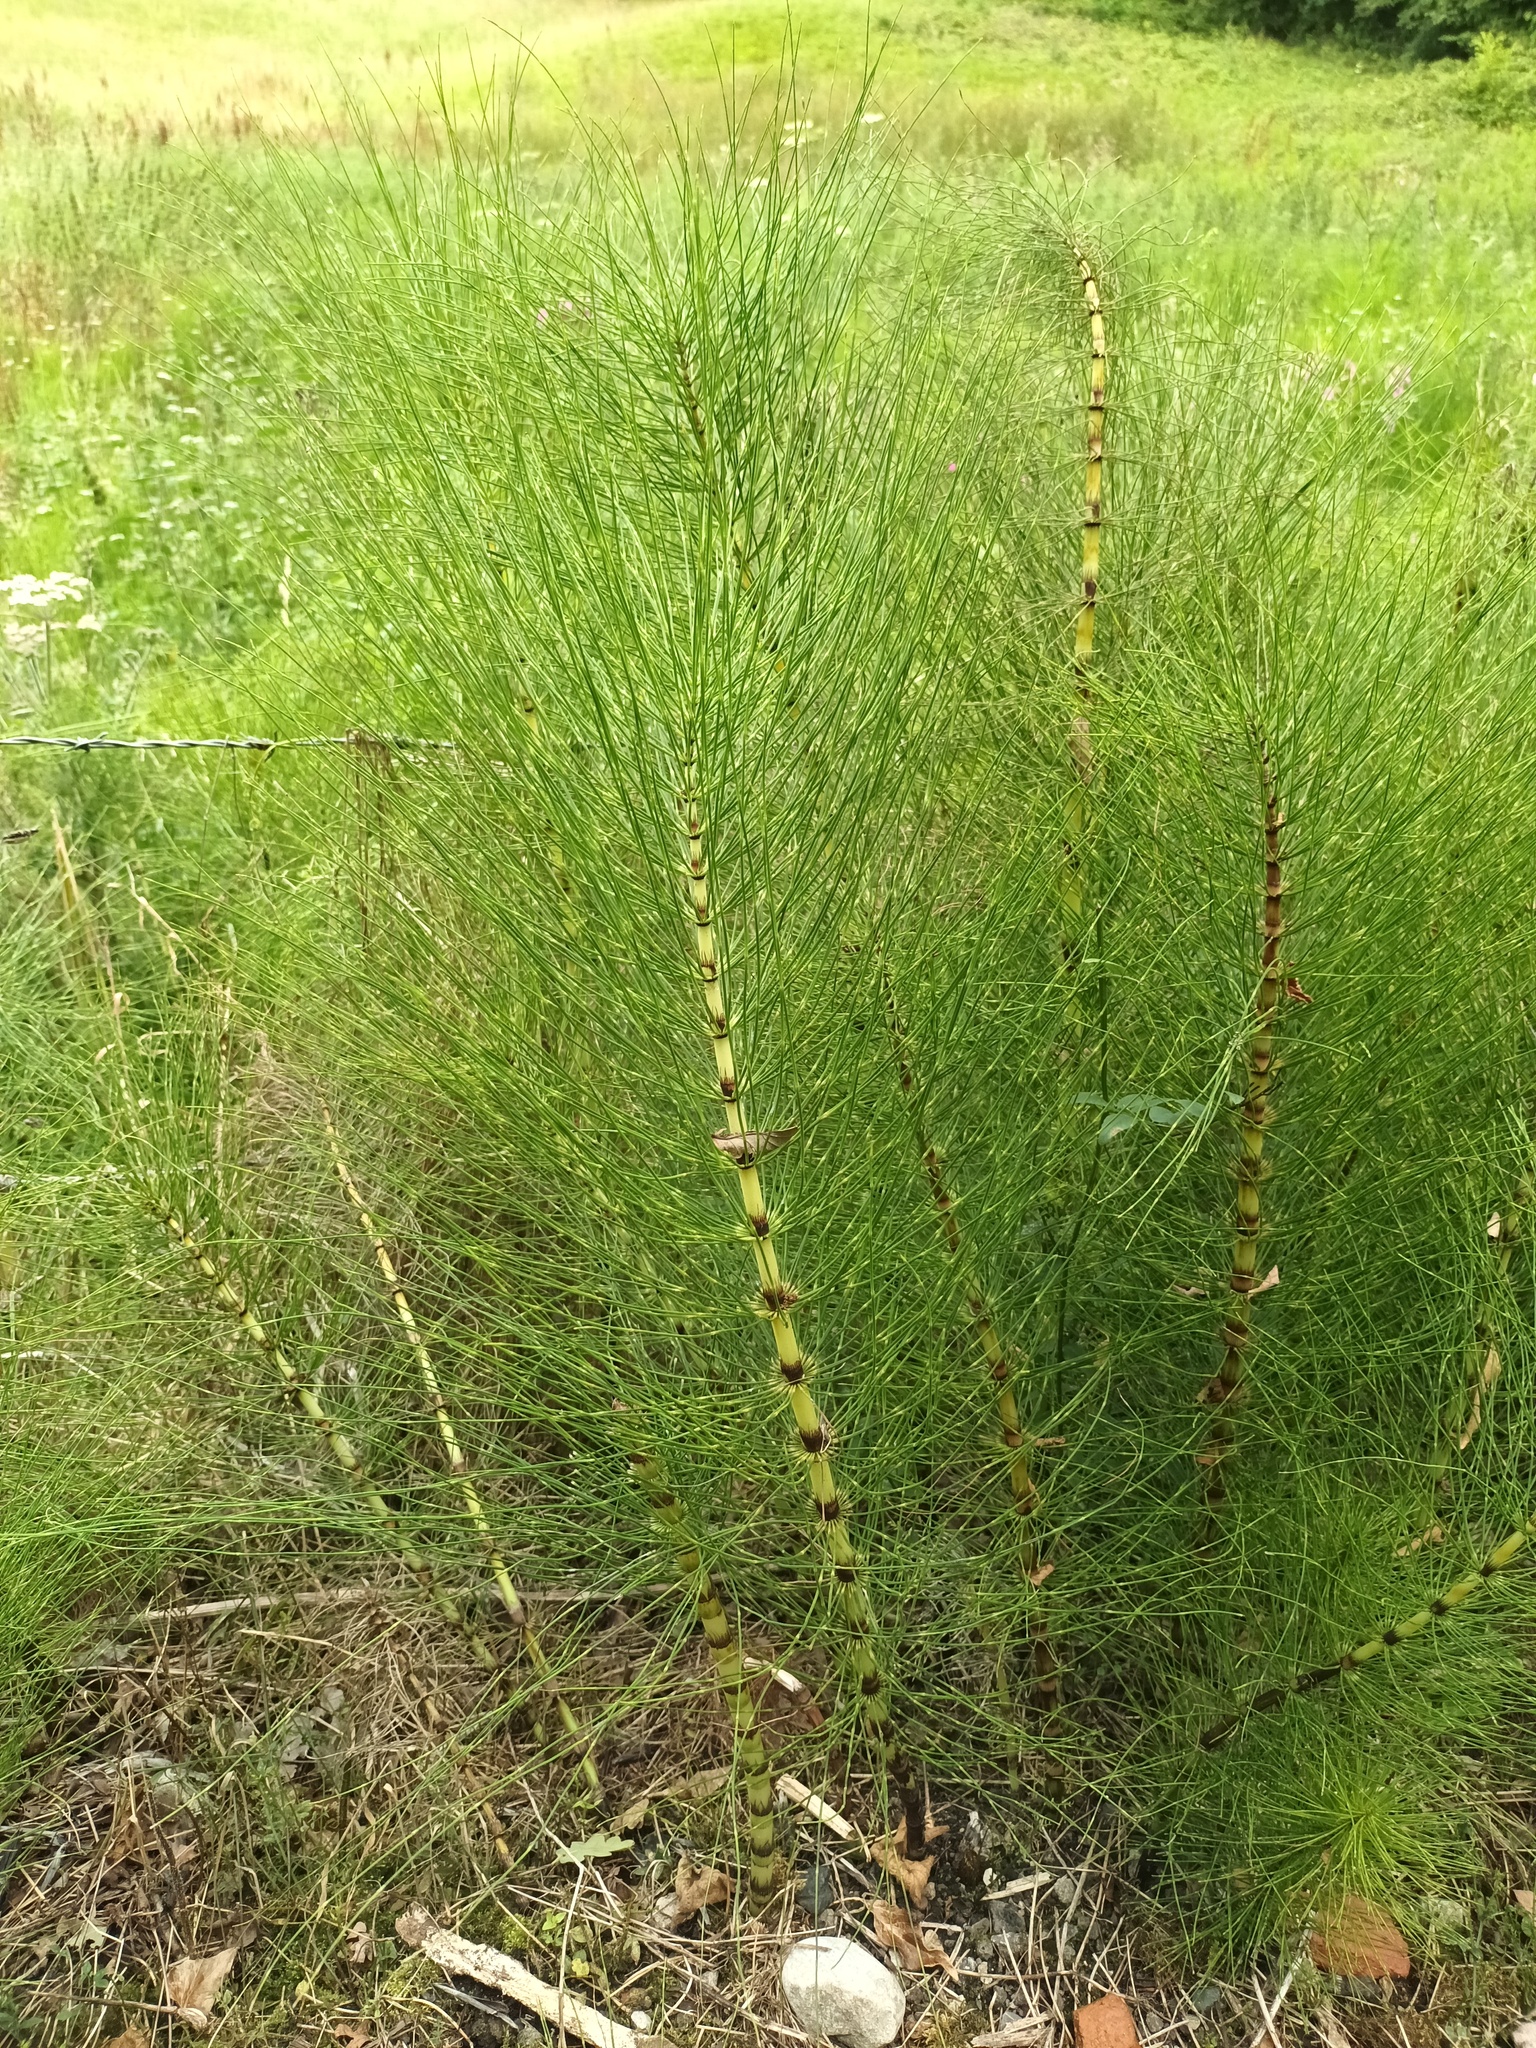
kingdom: Plantae
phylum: Tracheophyta
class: Polypodiopsida
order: Equisetales
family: Equisetaceae
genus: Equisetum
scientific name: Equisetum telmateia
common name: Great horsetail
